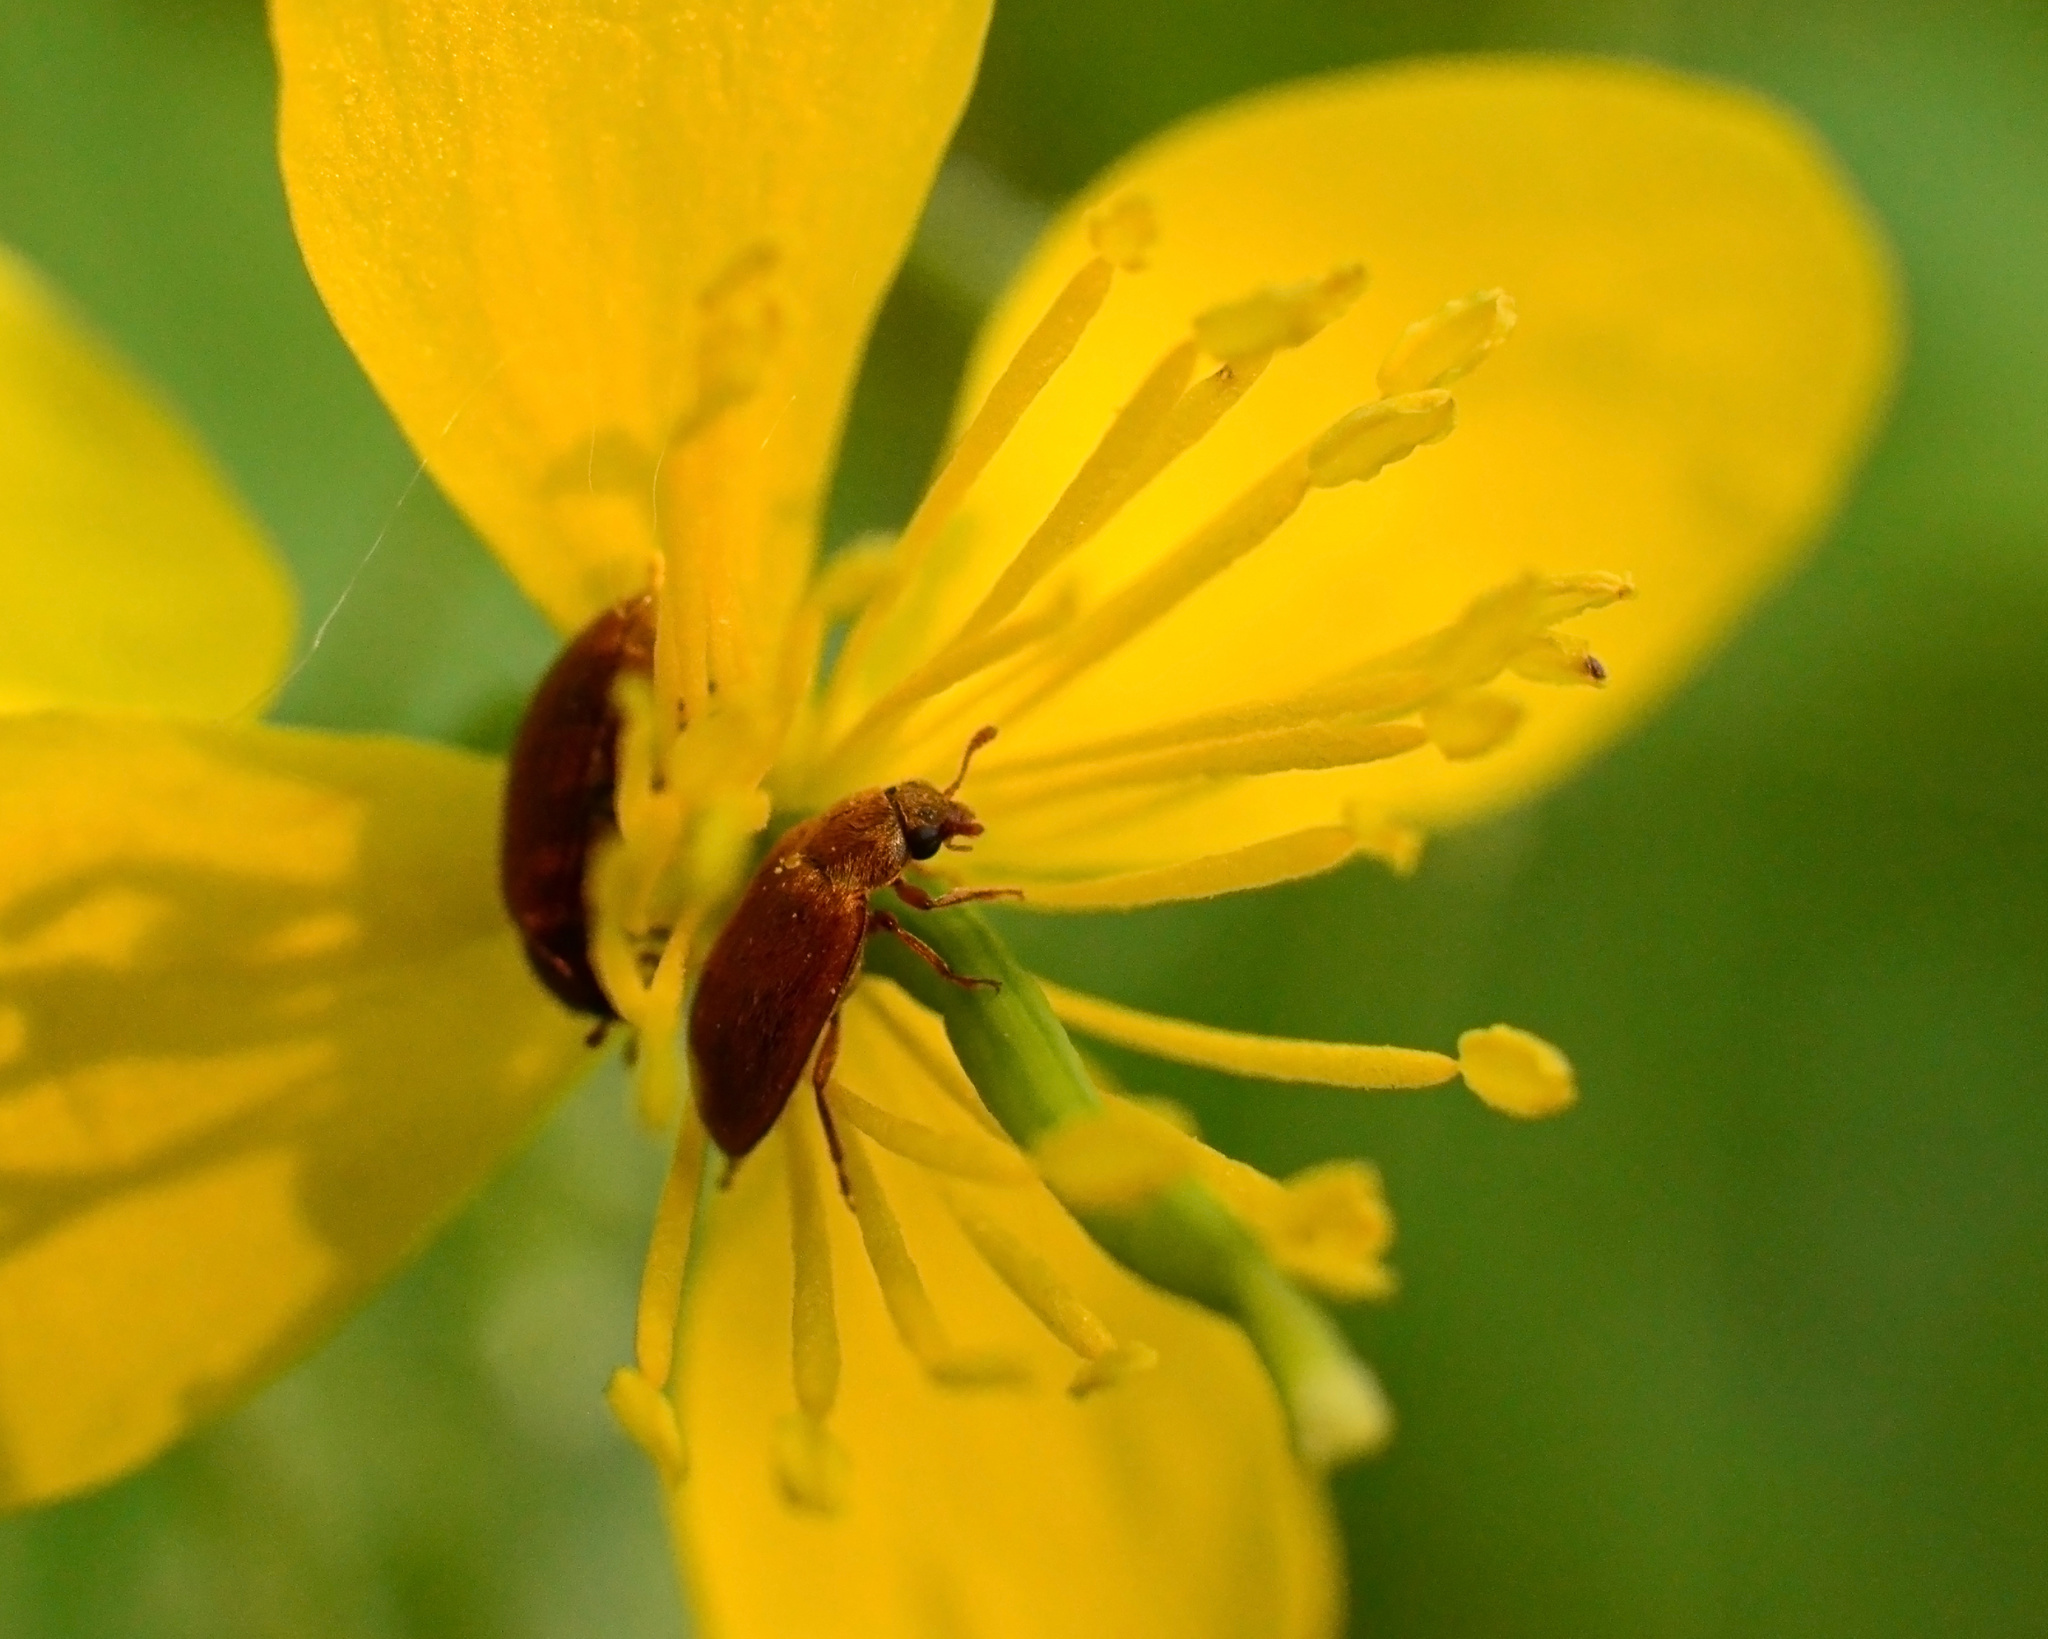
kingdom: Animalia
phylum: Arthropoda
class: Insecta
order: Coleoptera
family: Byturidae
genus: Byturus
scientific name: Byturus
